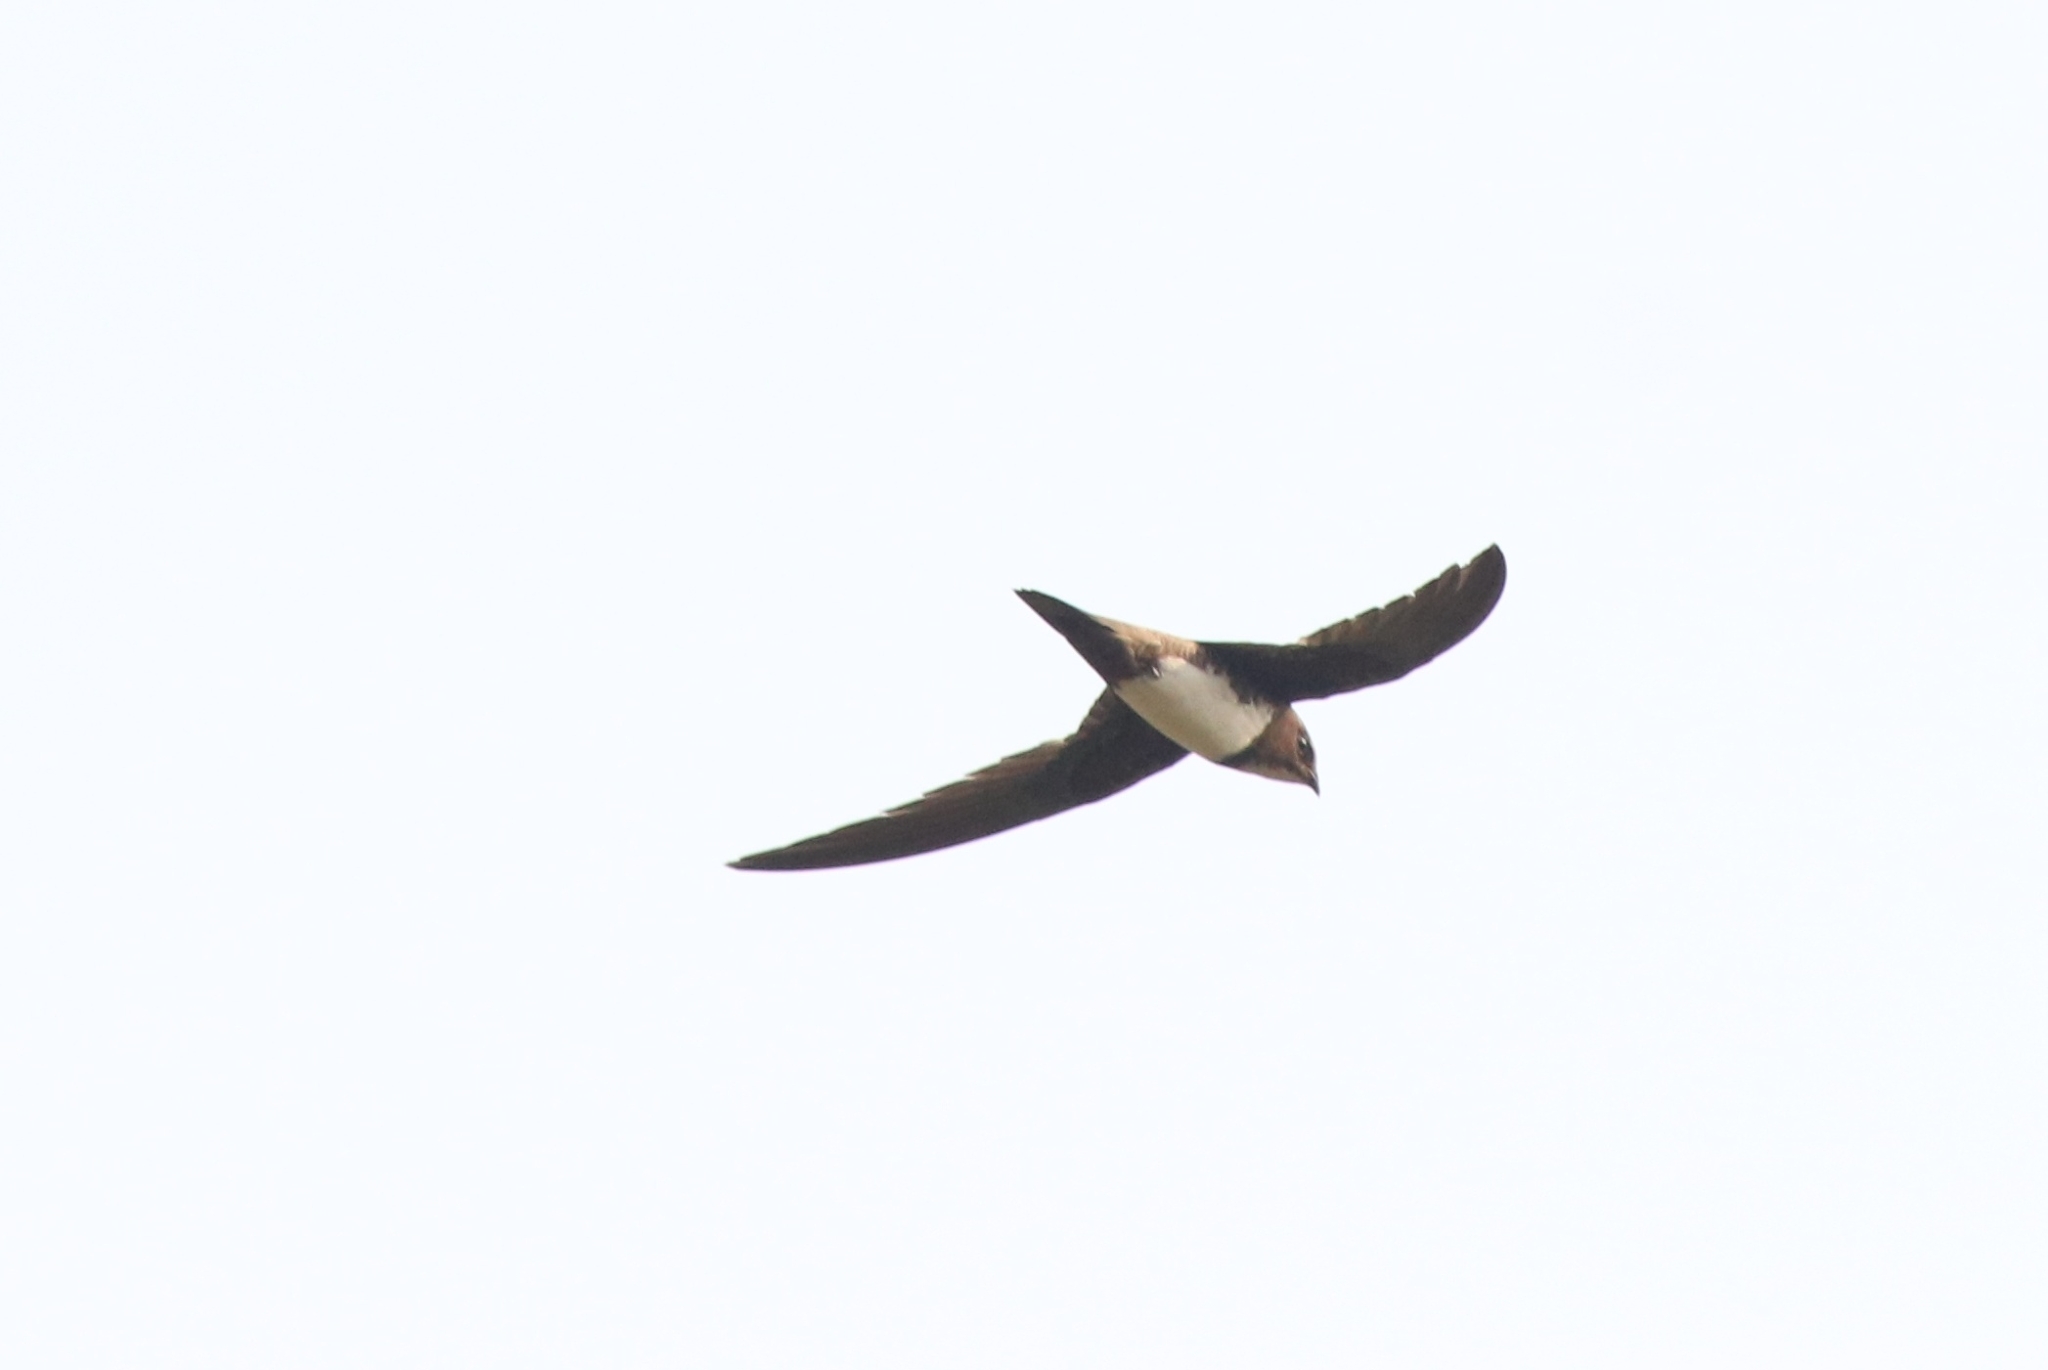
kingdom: Animalia
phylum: Chordata
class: Aves
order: Apodiformes
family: Apodidae
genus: Tachymarptis
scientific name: Tachymarptis melba
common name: Alpine swift
